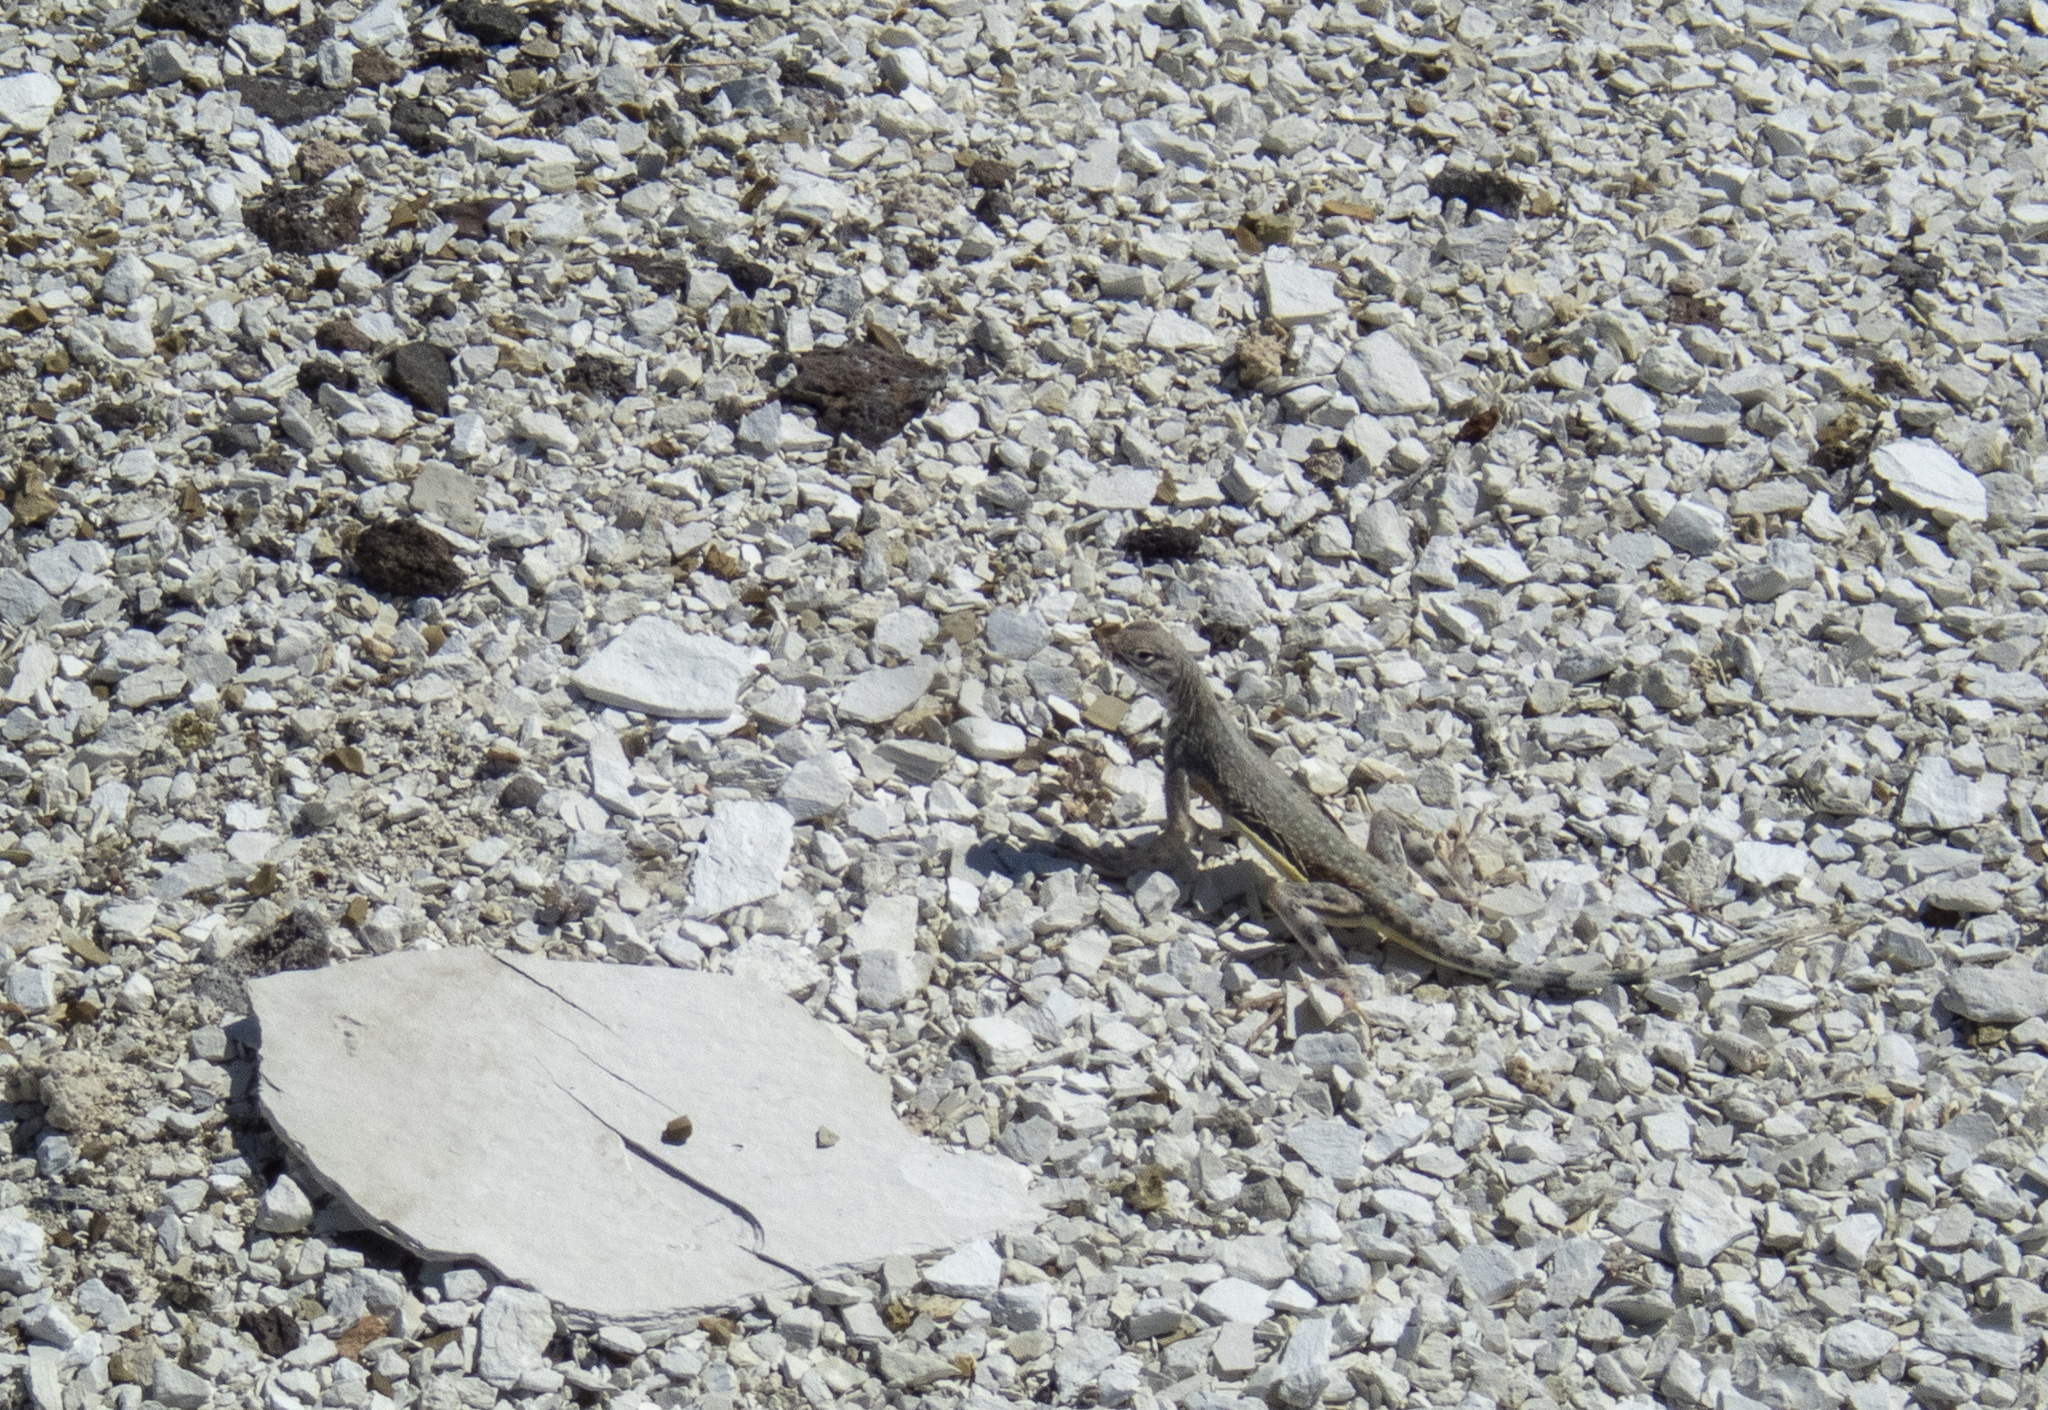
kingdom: Animalia
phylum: Chordata
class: Squamata
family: Phrynosomatidae
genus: Callisaurus
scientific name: Callisaurus draconoides
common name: Zebra-tailed lizard
